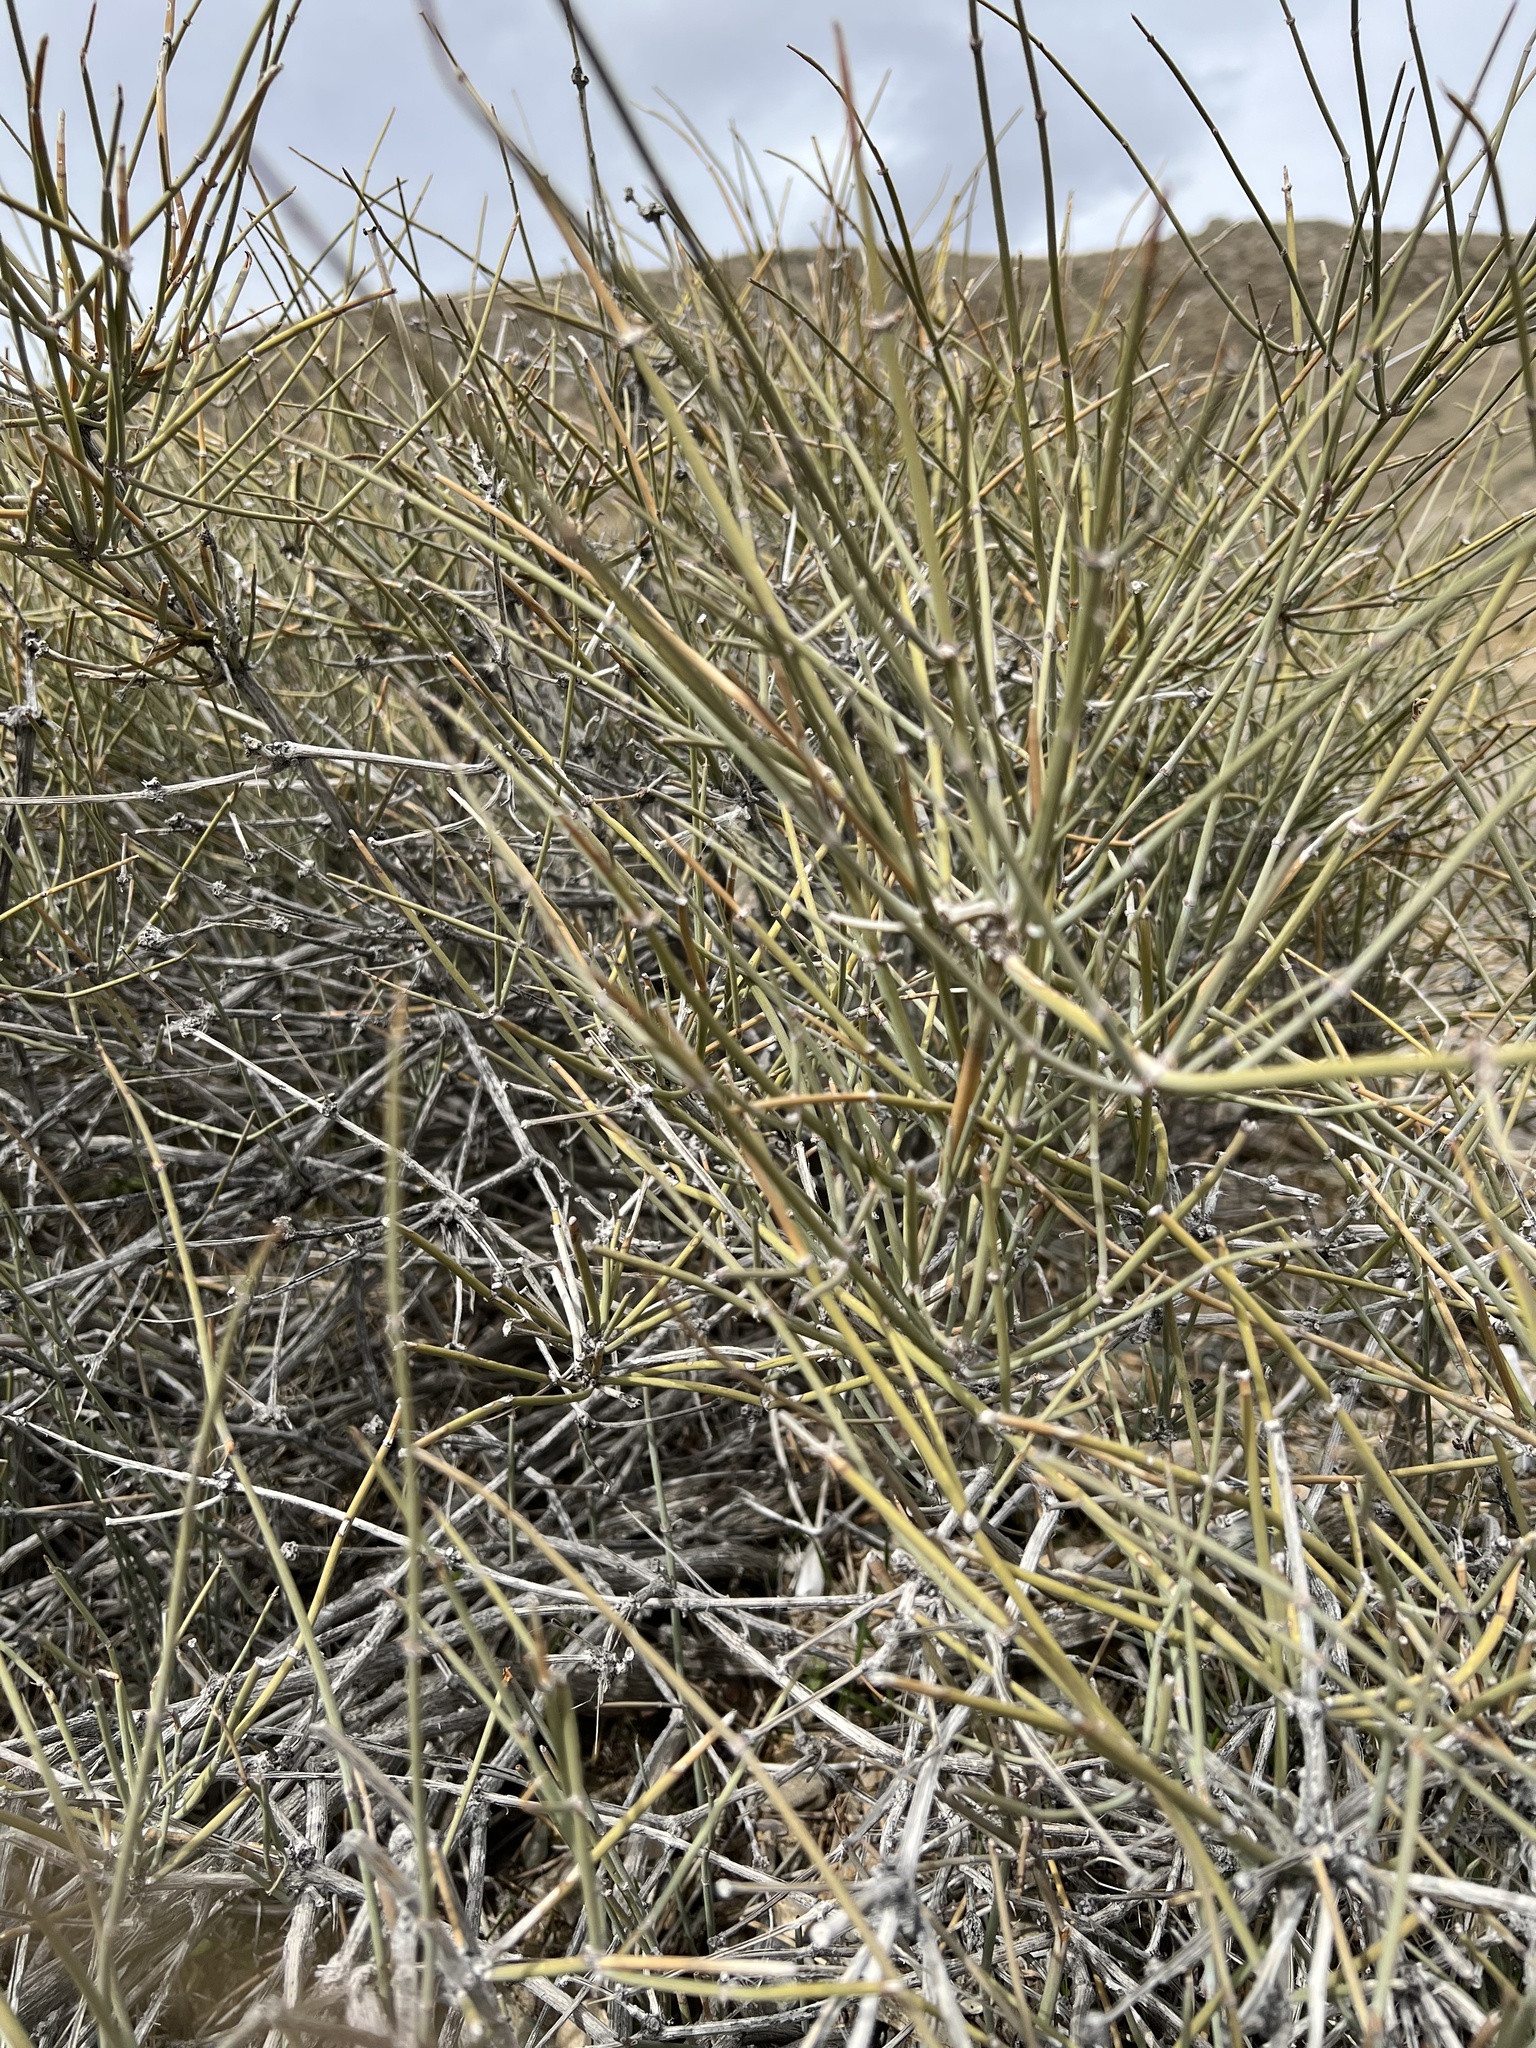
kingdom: Plantae
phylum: Tracheophyta
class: Gnetopsida
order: Ephedrales
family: Ephedraceae
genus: Ephedra
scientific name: Ephedra nevadensis
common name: Gray ephedra
